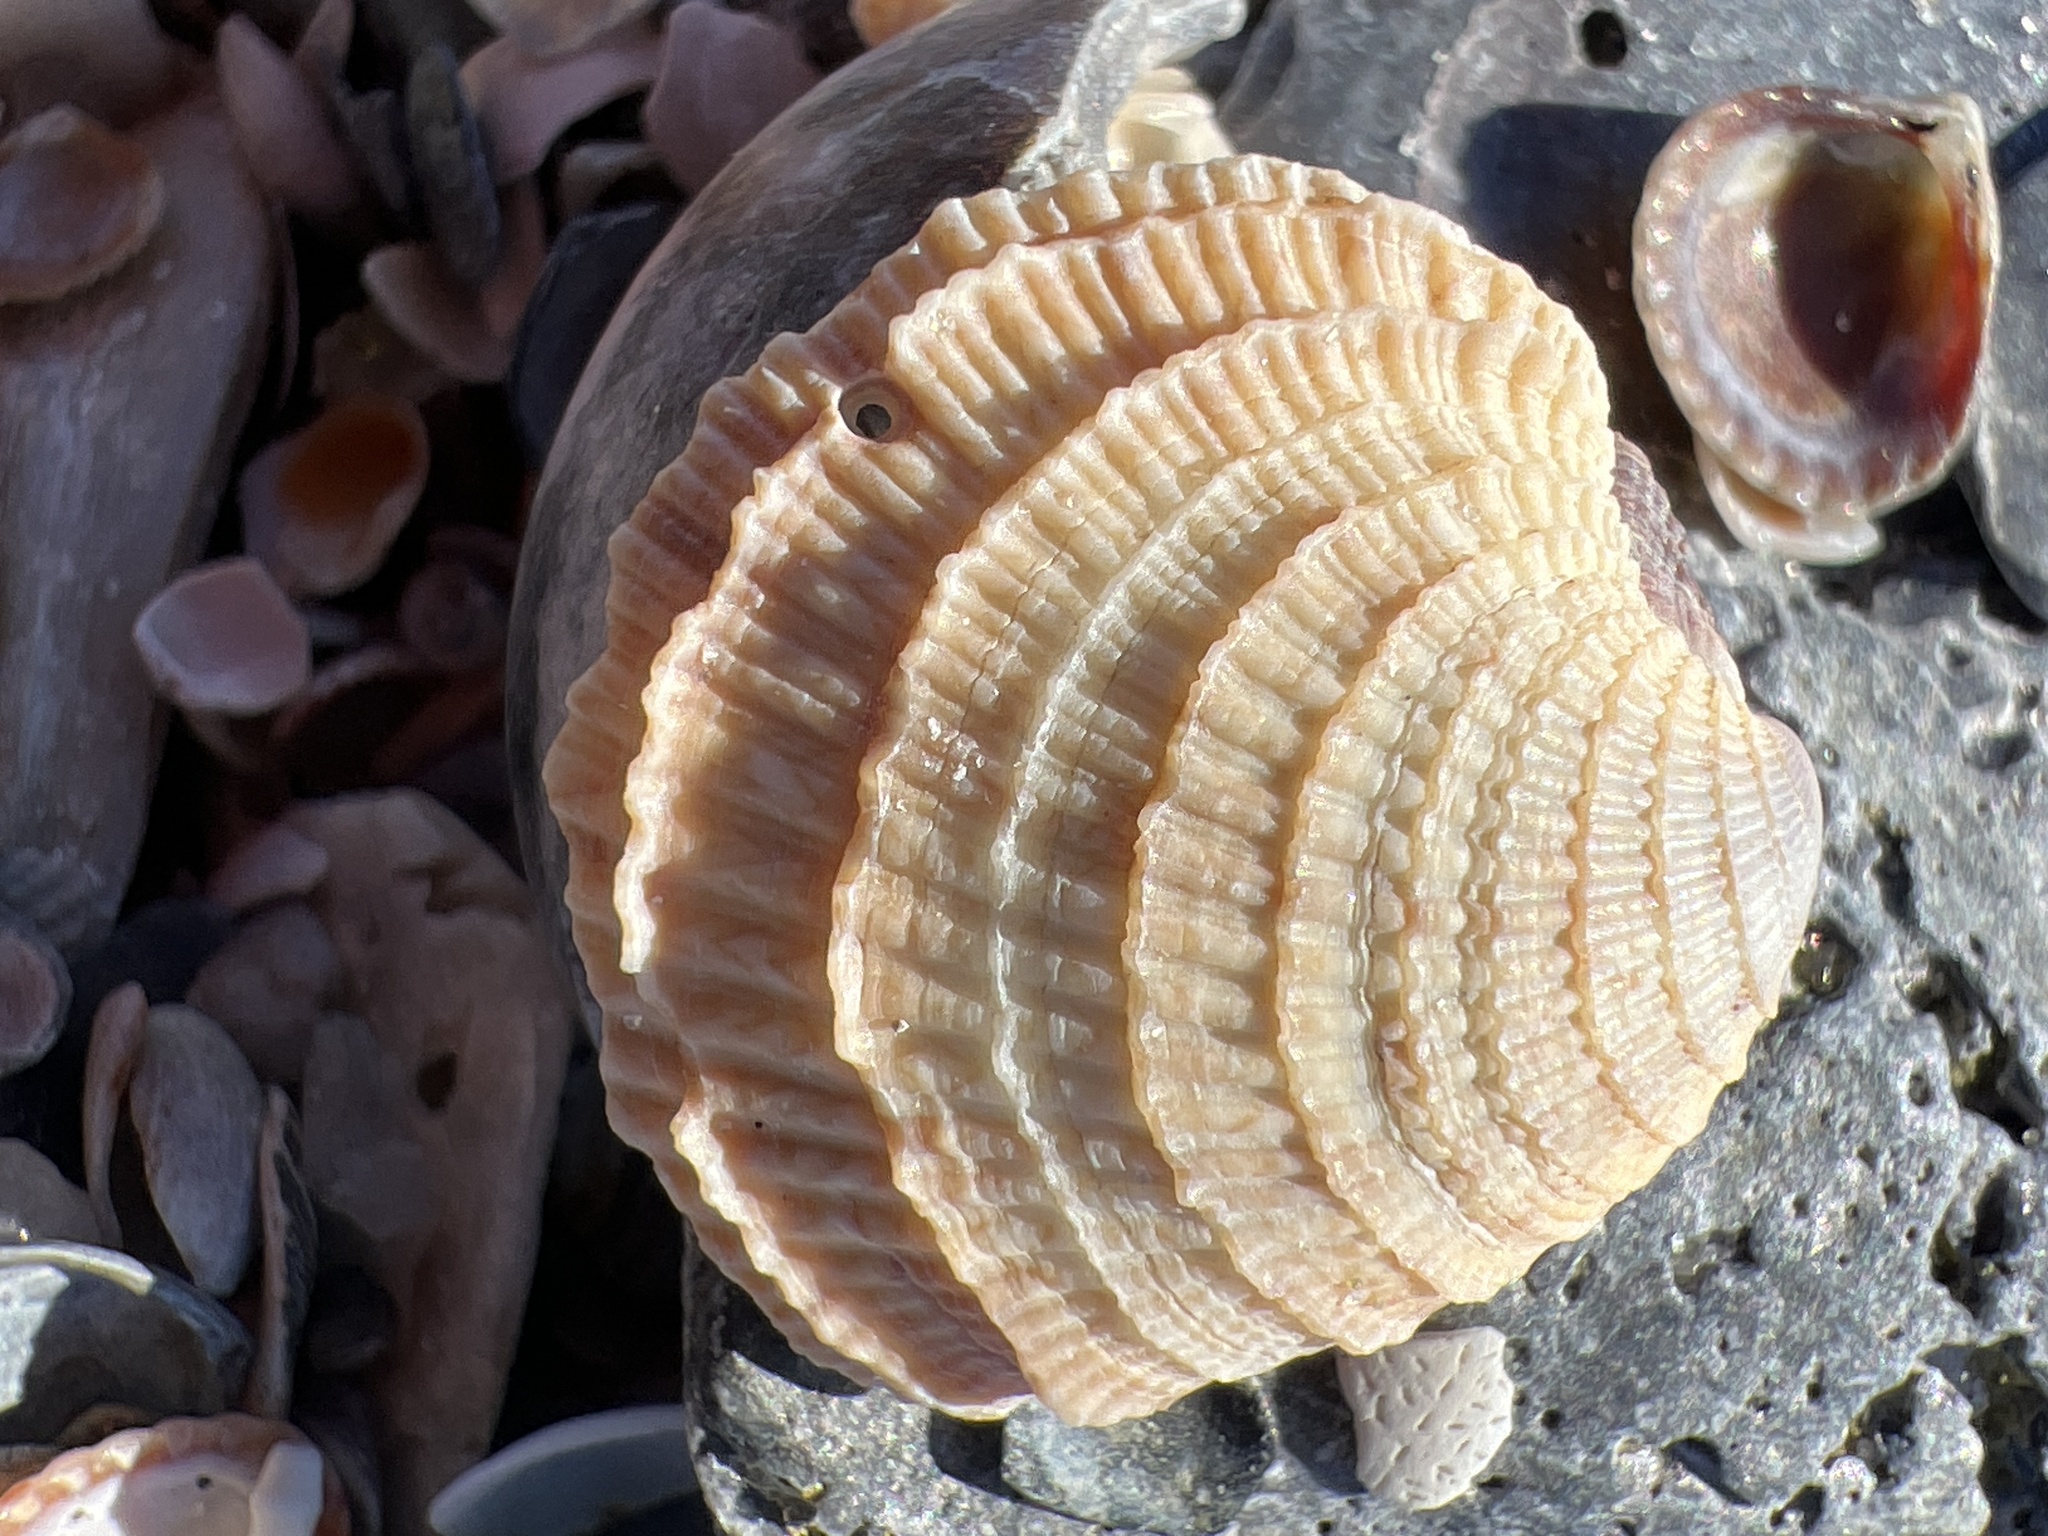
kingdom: Animalia
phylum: Mollusca
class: Bivalvia
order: Venerida
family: Veneridae
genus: Chione
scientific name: Chione elevata
